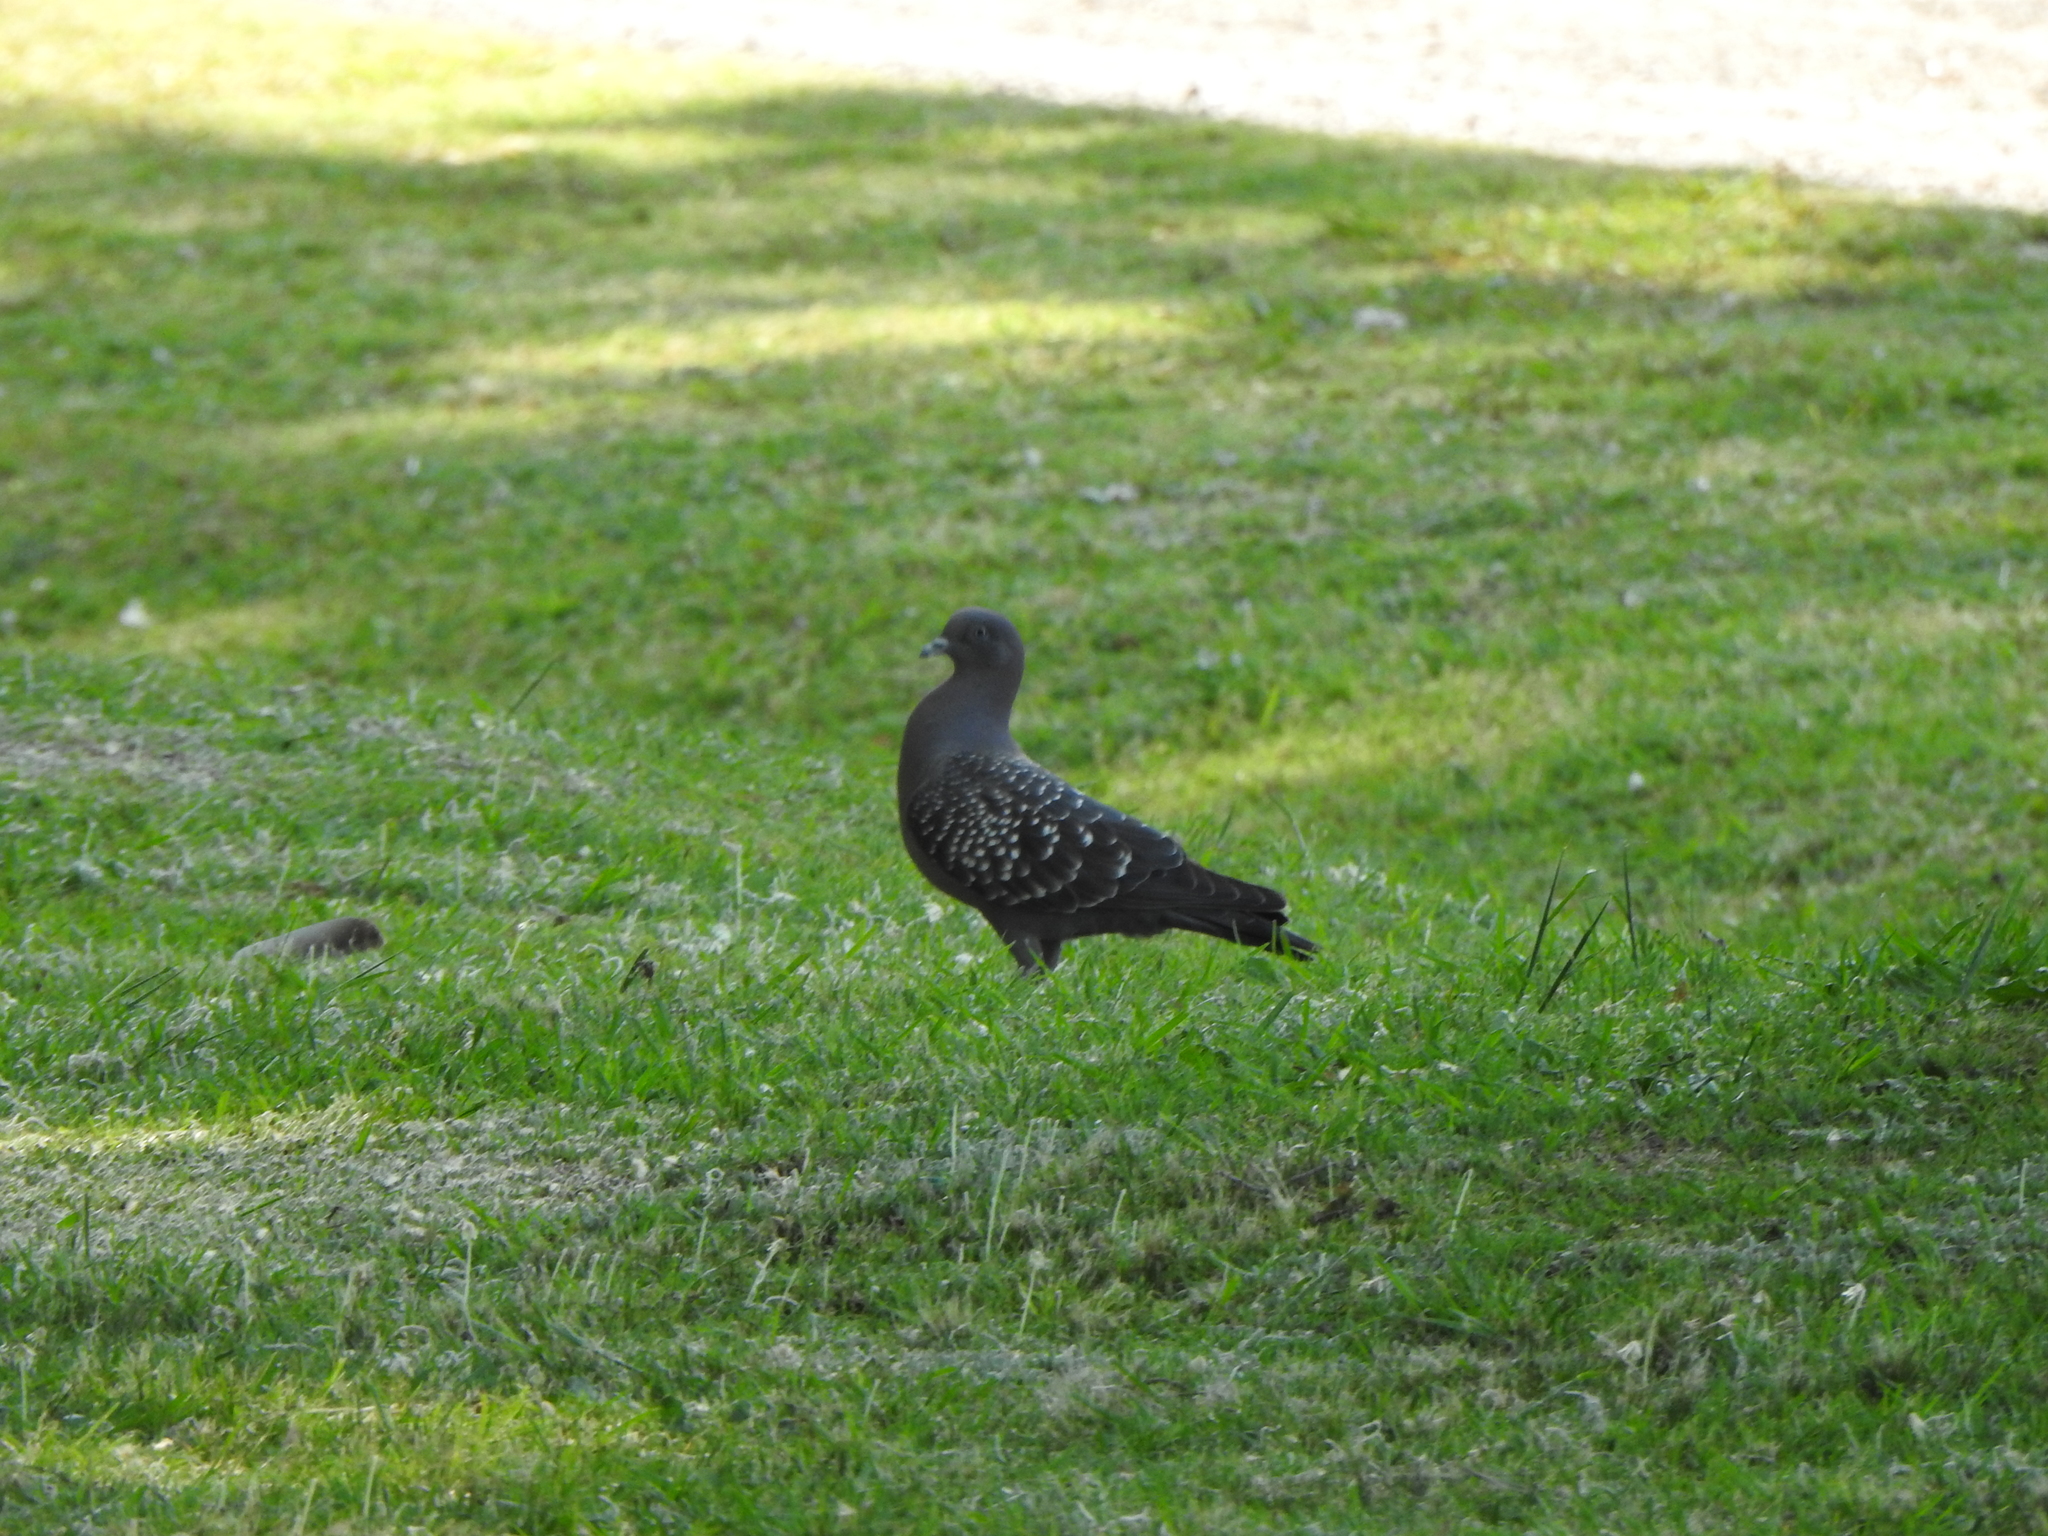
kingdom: Animalia
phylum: Chordata
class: Aves
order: Columbiformes
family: Columbidae
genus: Patagioenas
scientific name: Patagioenas maculosa
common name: Spot-winged pigeon
